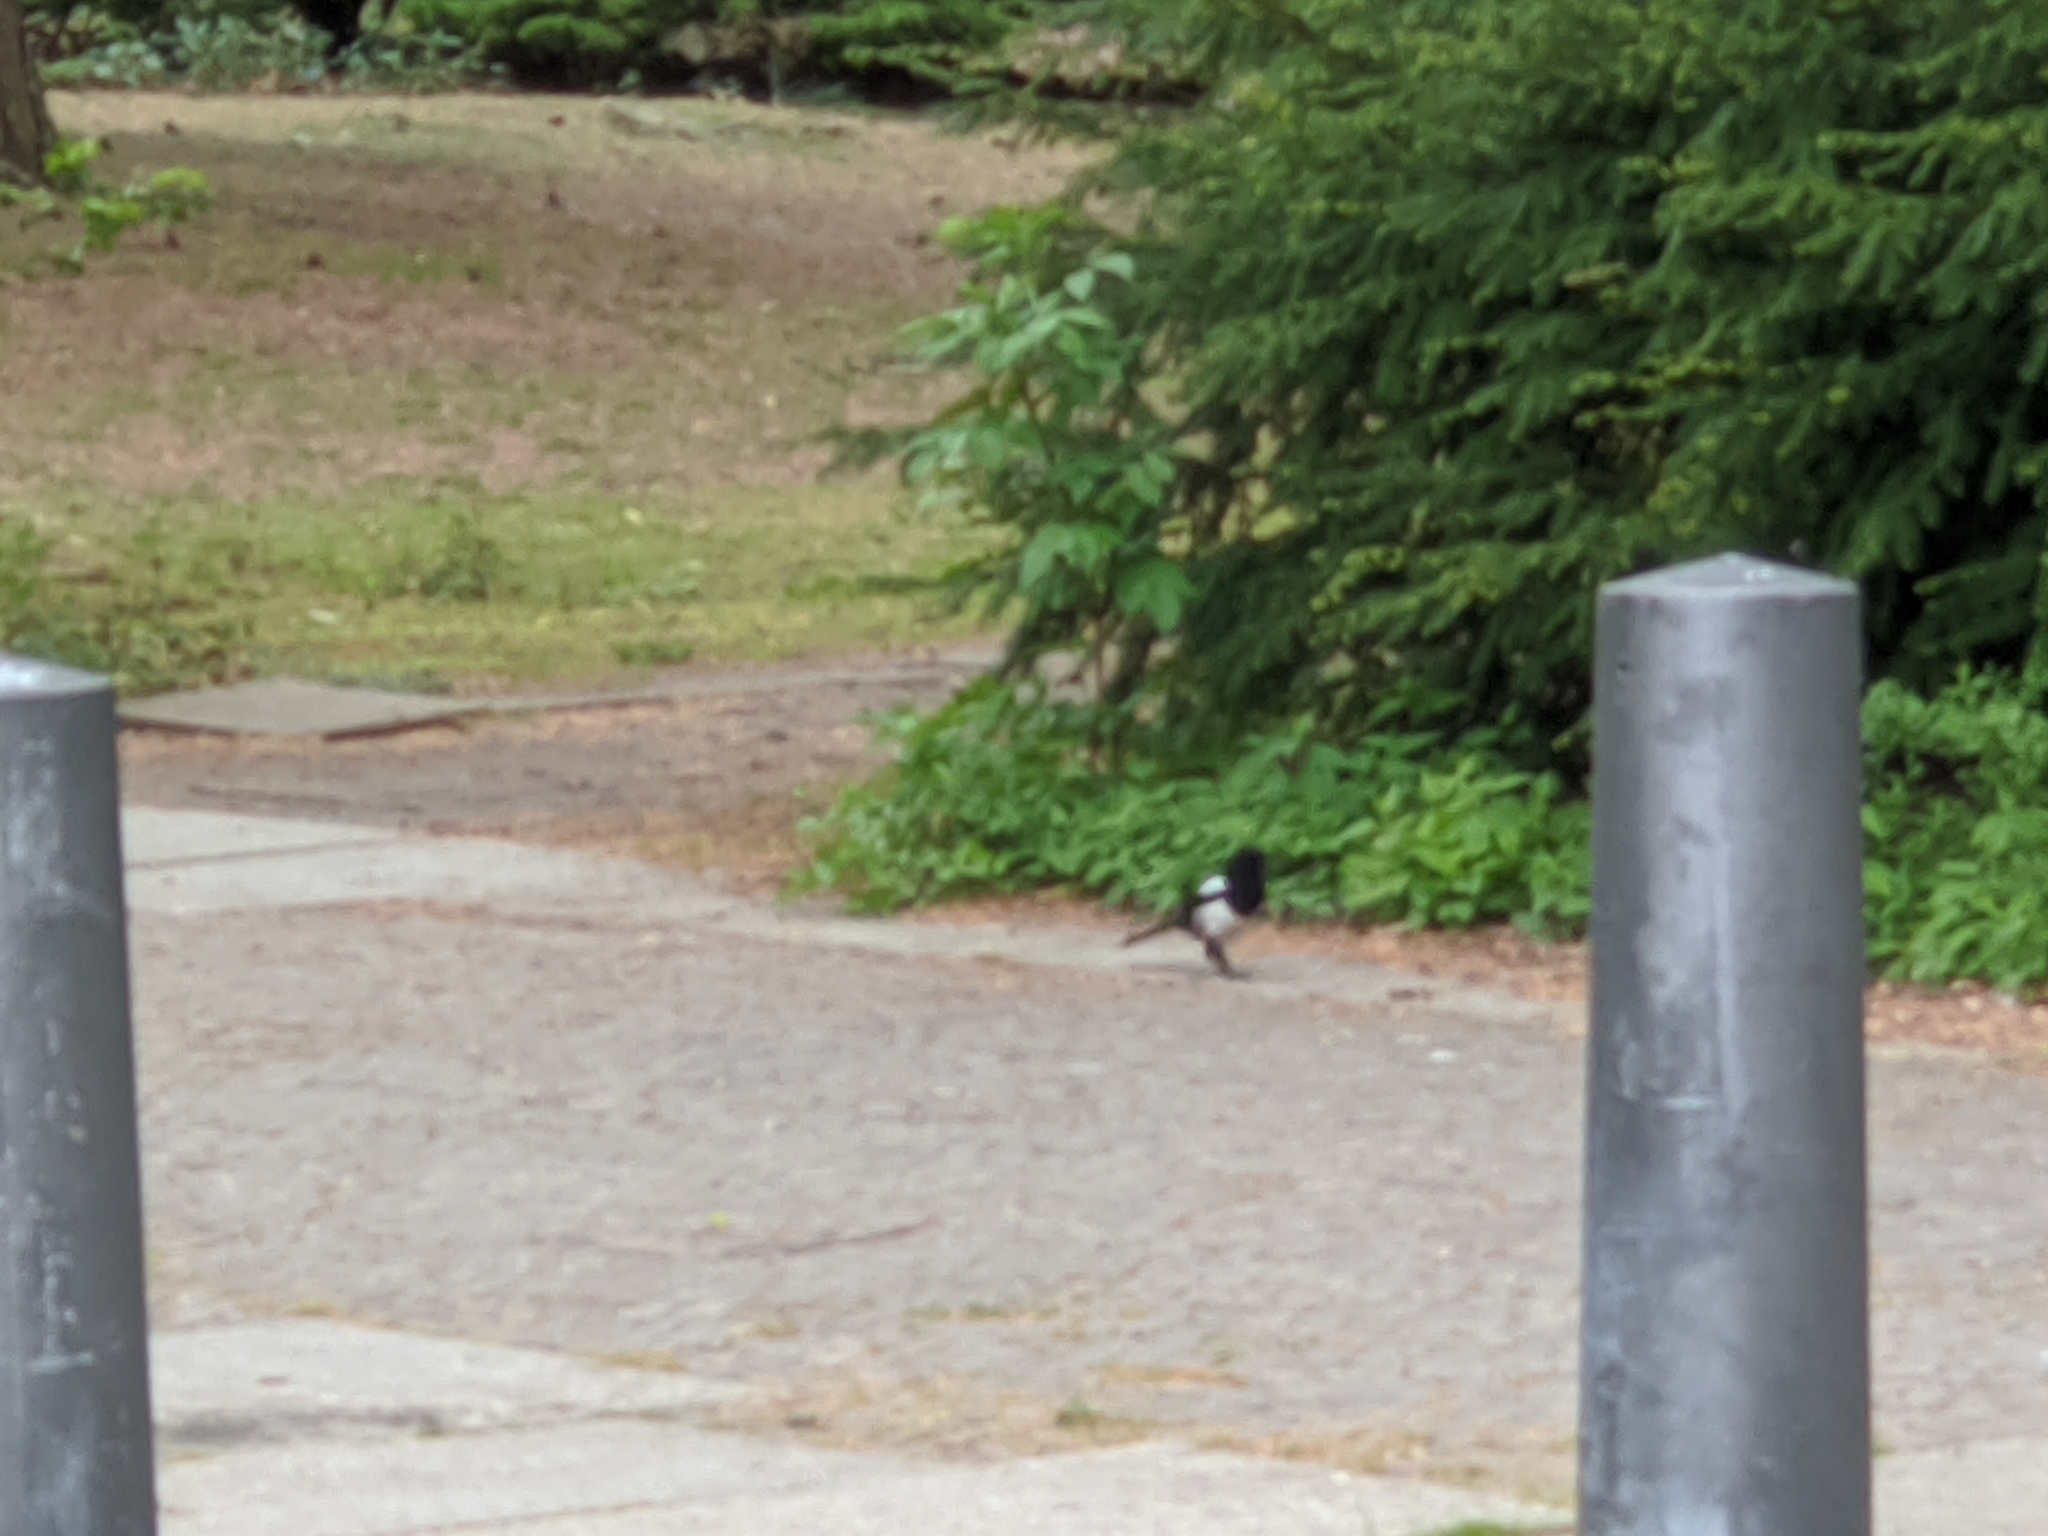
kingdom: Animalia
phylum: Chordata
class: Aves
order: Passeriformes
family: Corvidae
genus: Pica
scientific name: Pica pica
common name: Eurasian magpie
